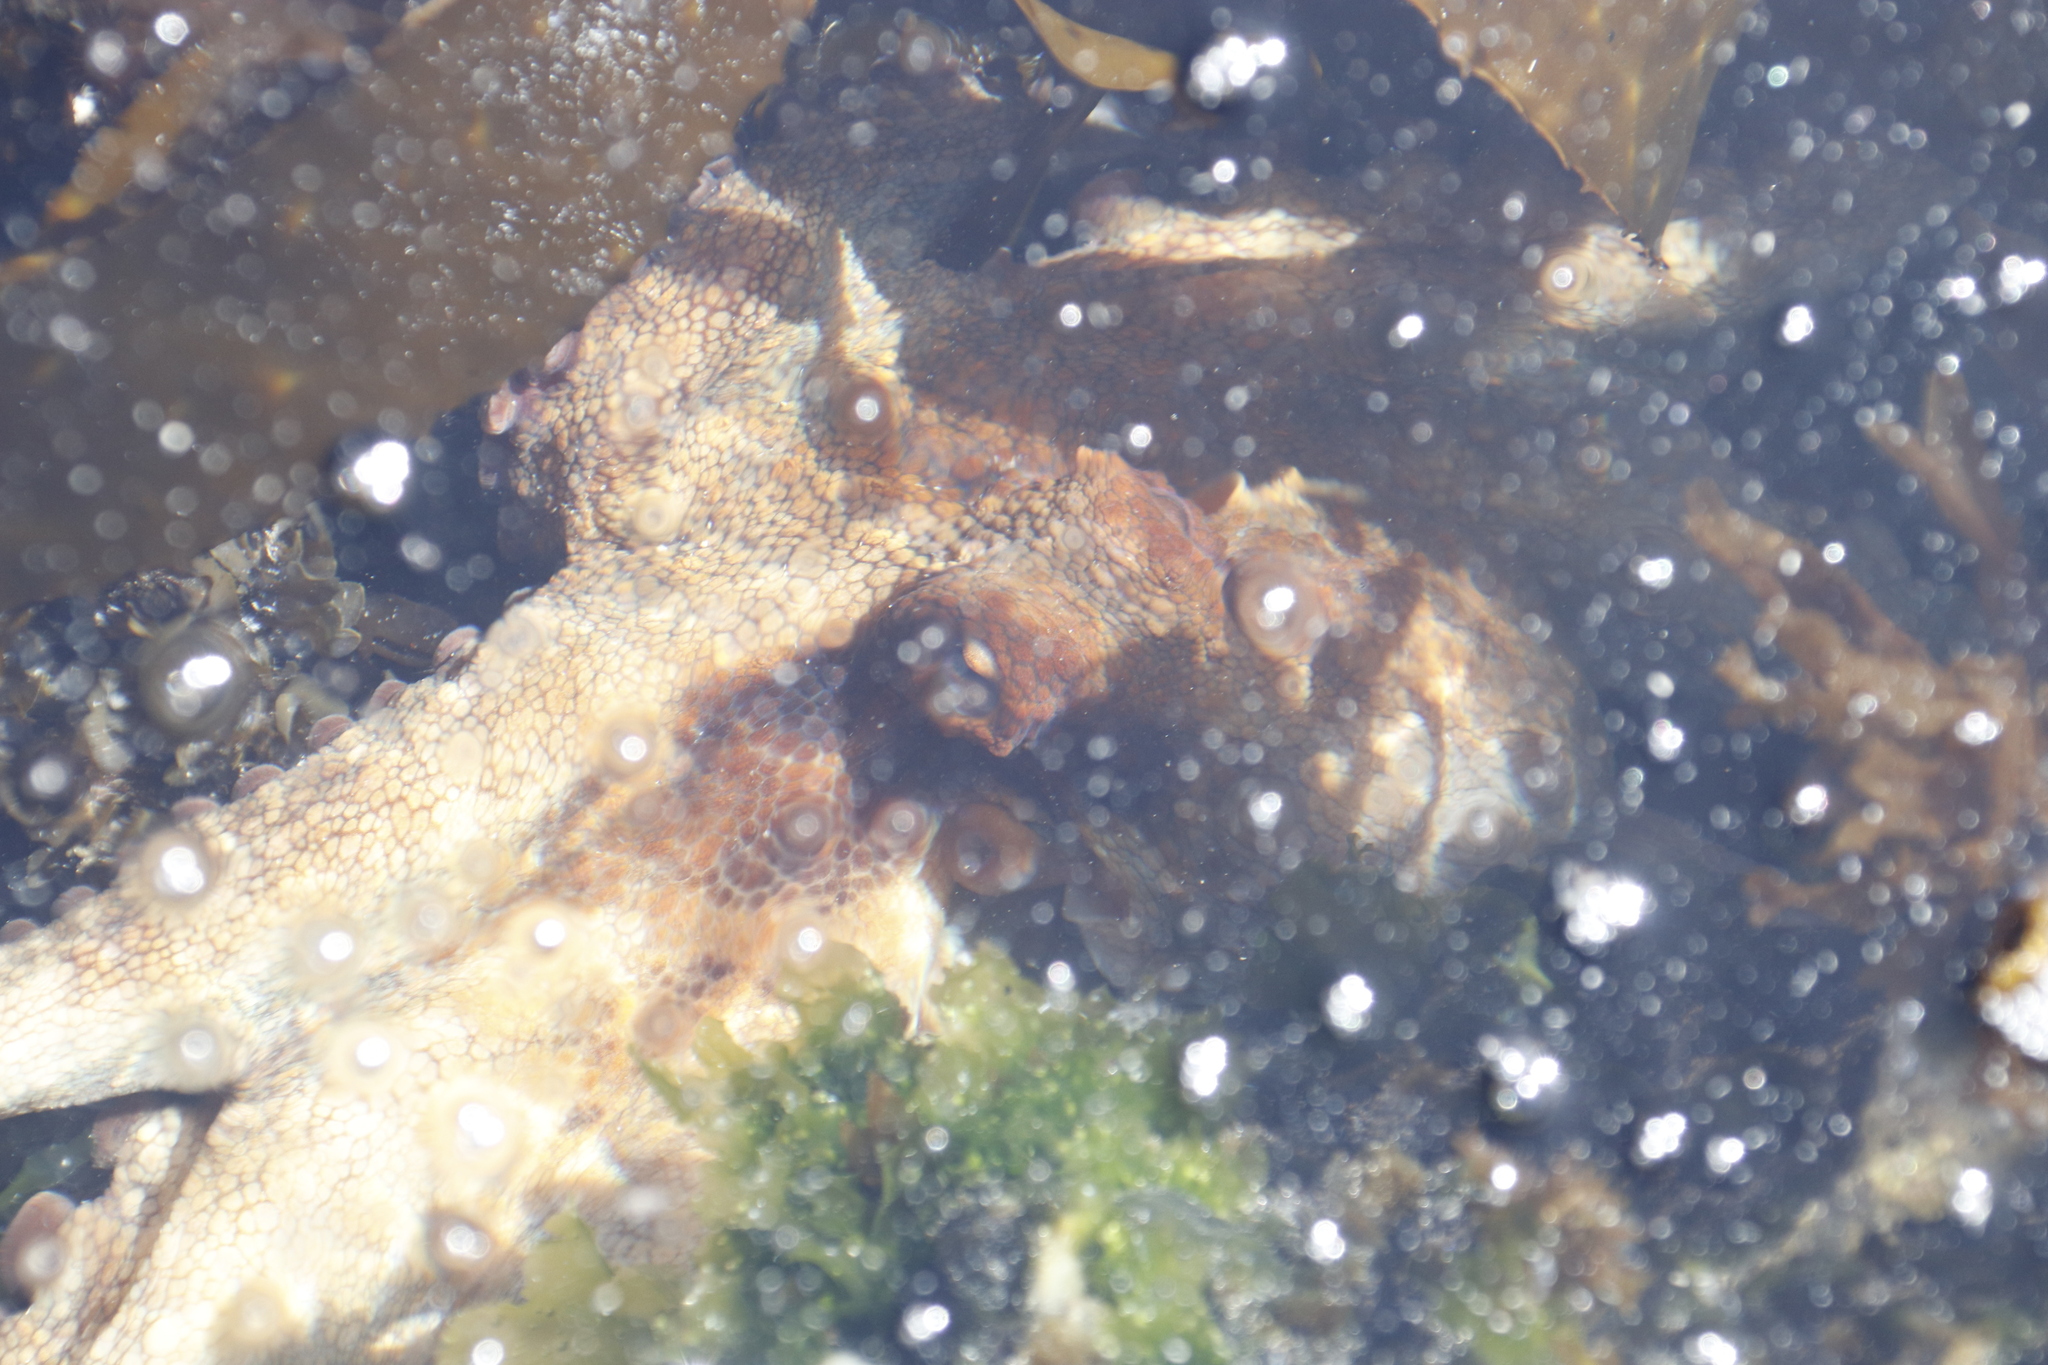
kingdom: Animalia
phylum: Mollusca
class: Cephalopoda
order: Octopoda
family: Octopodidae
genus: Octopus
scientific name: Octopus vulgaris
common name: Common octopus
